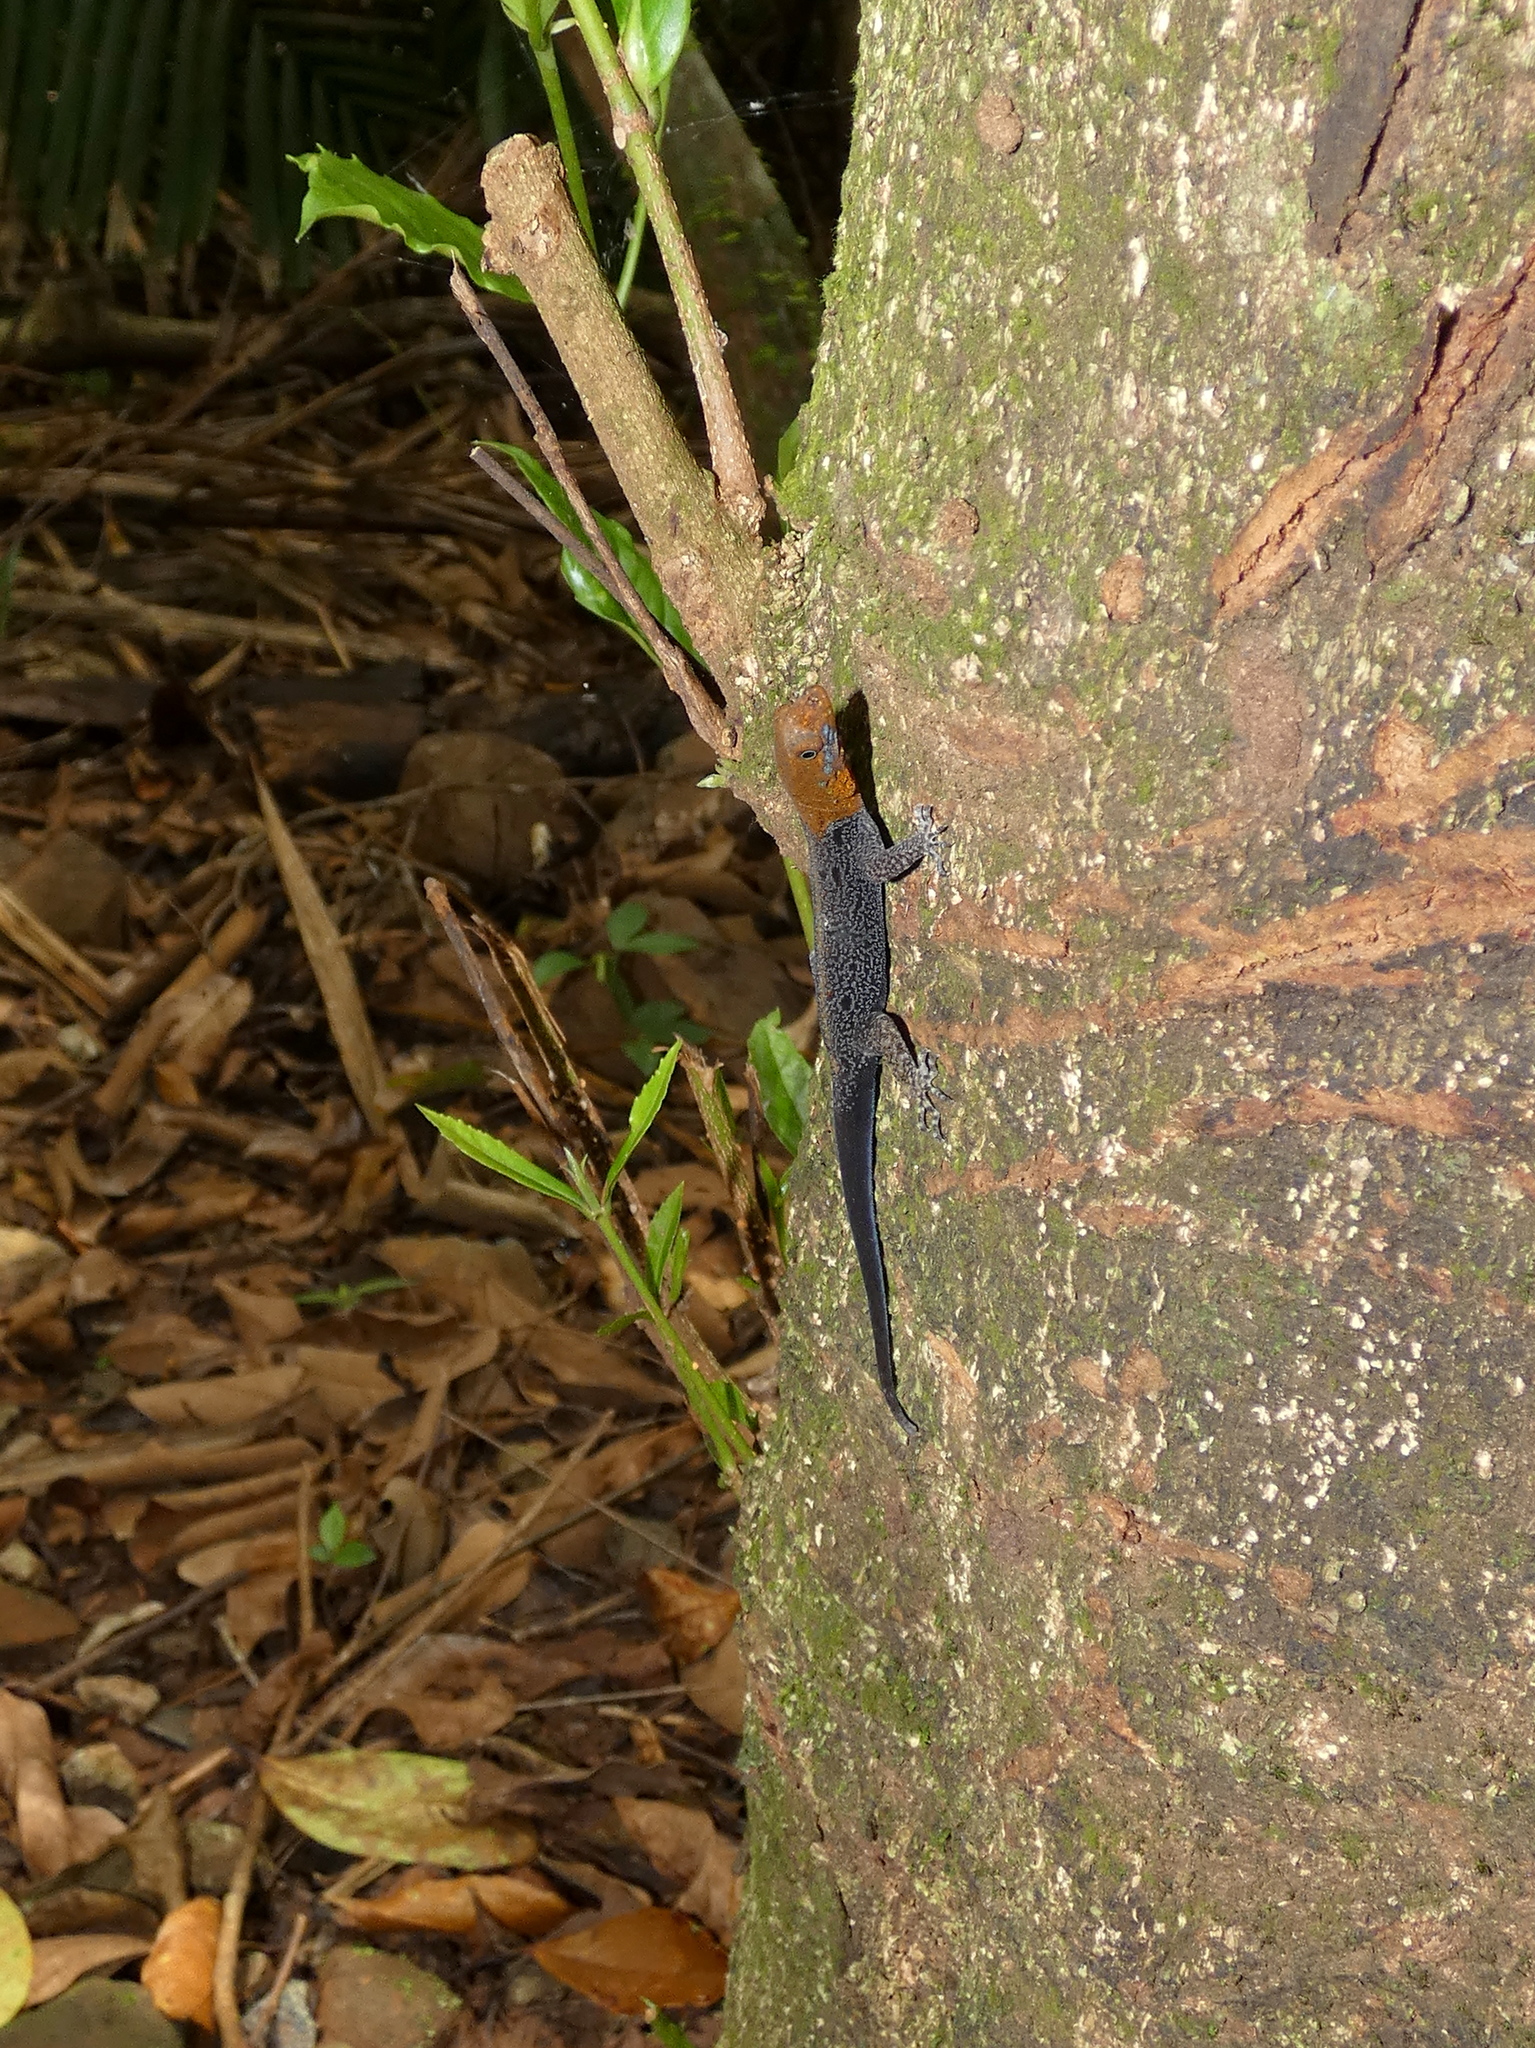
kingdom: Animalia
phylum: Chordata
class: Squamata
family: Sphaerodactylidae
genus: Gonatodes
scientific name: Gonatodes albogularis
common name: Yellow-headed gecko
